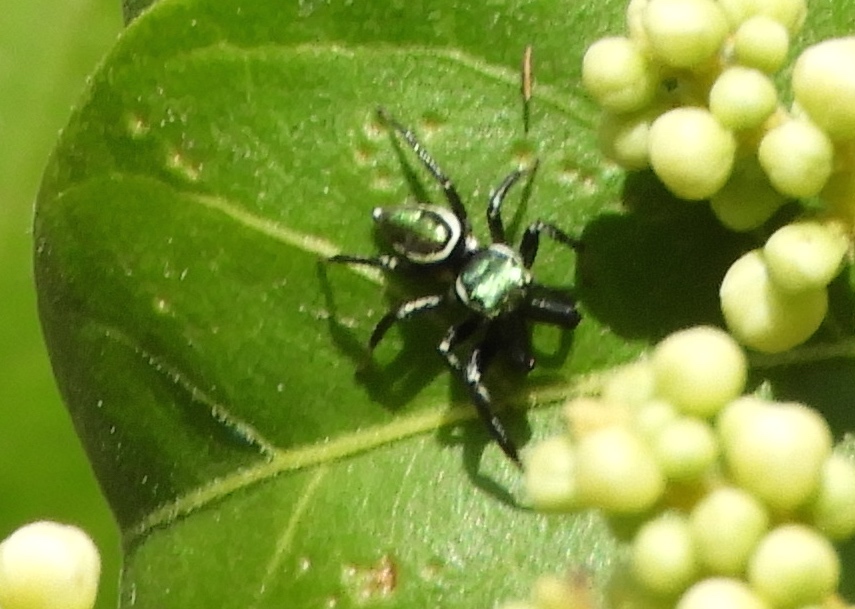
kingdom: Animalia
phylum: Arthropoda
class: Arachnida
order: Araneae
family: Salticidae
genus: Messua
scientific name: Messua limbata
